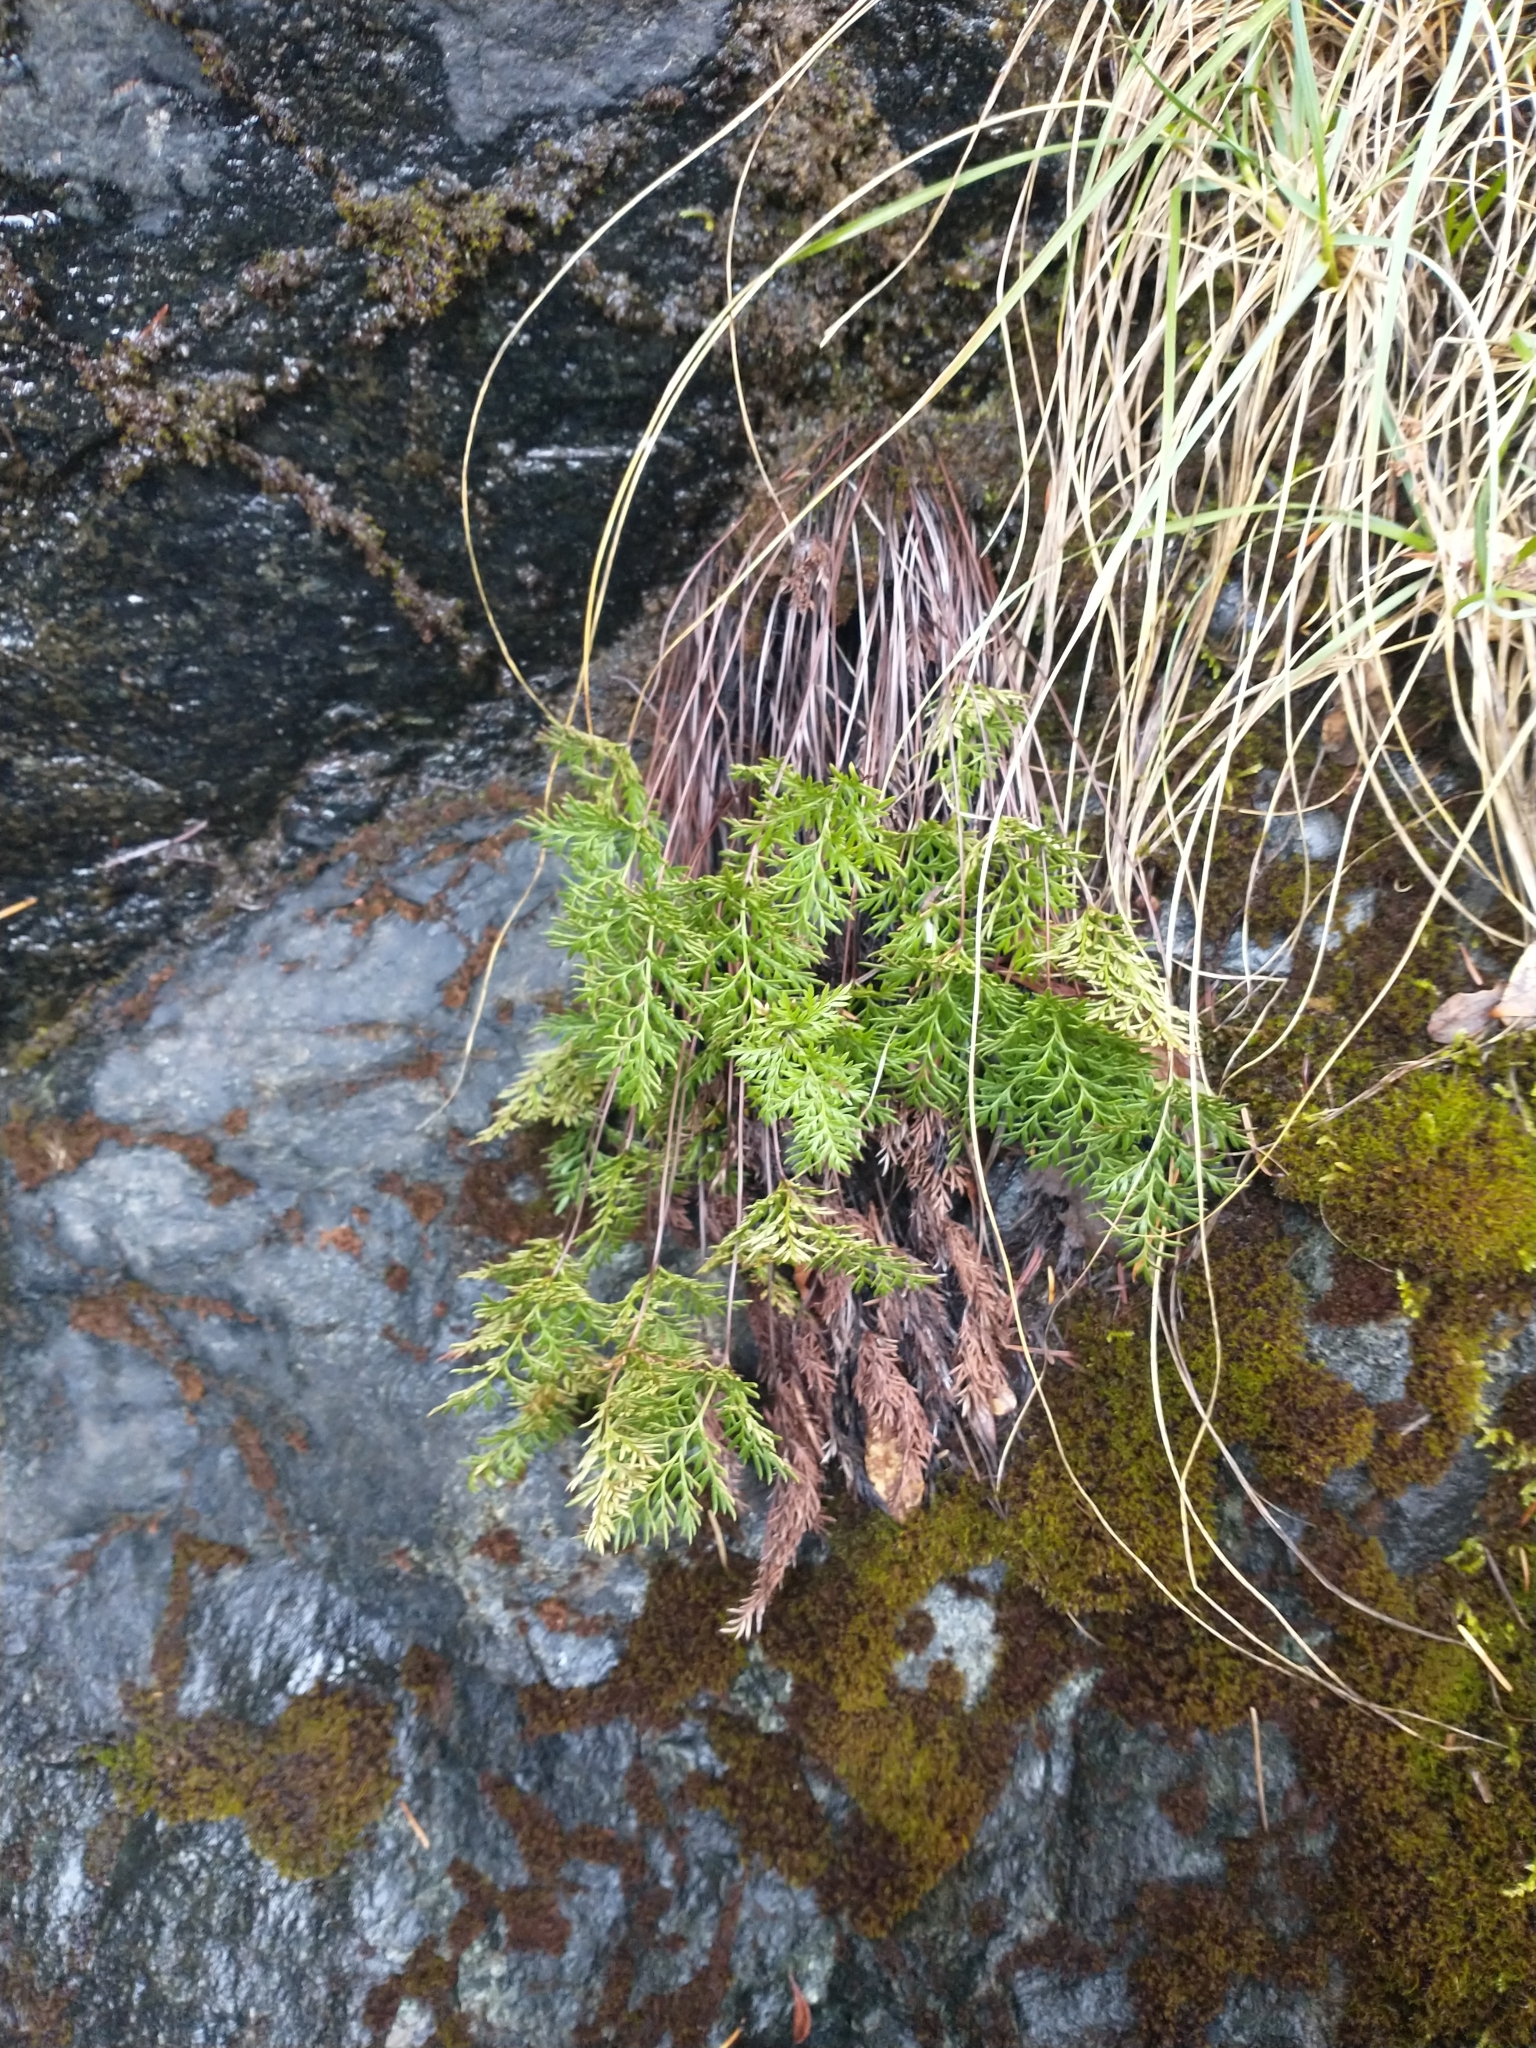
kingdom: Plantae
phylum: Tracheophyta
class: Polypodiopsida
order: Polypodiales
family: Pteridaceae
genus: Aspidotis
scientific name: Aspidotis densa
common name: Indian's dream
